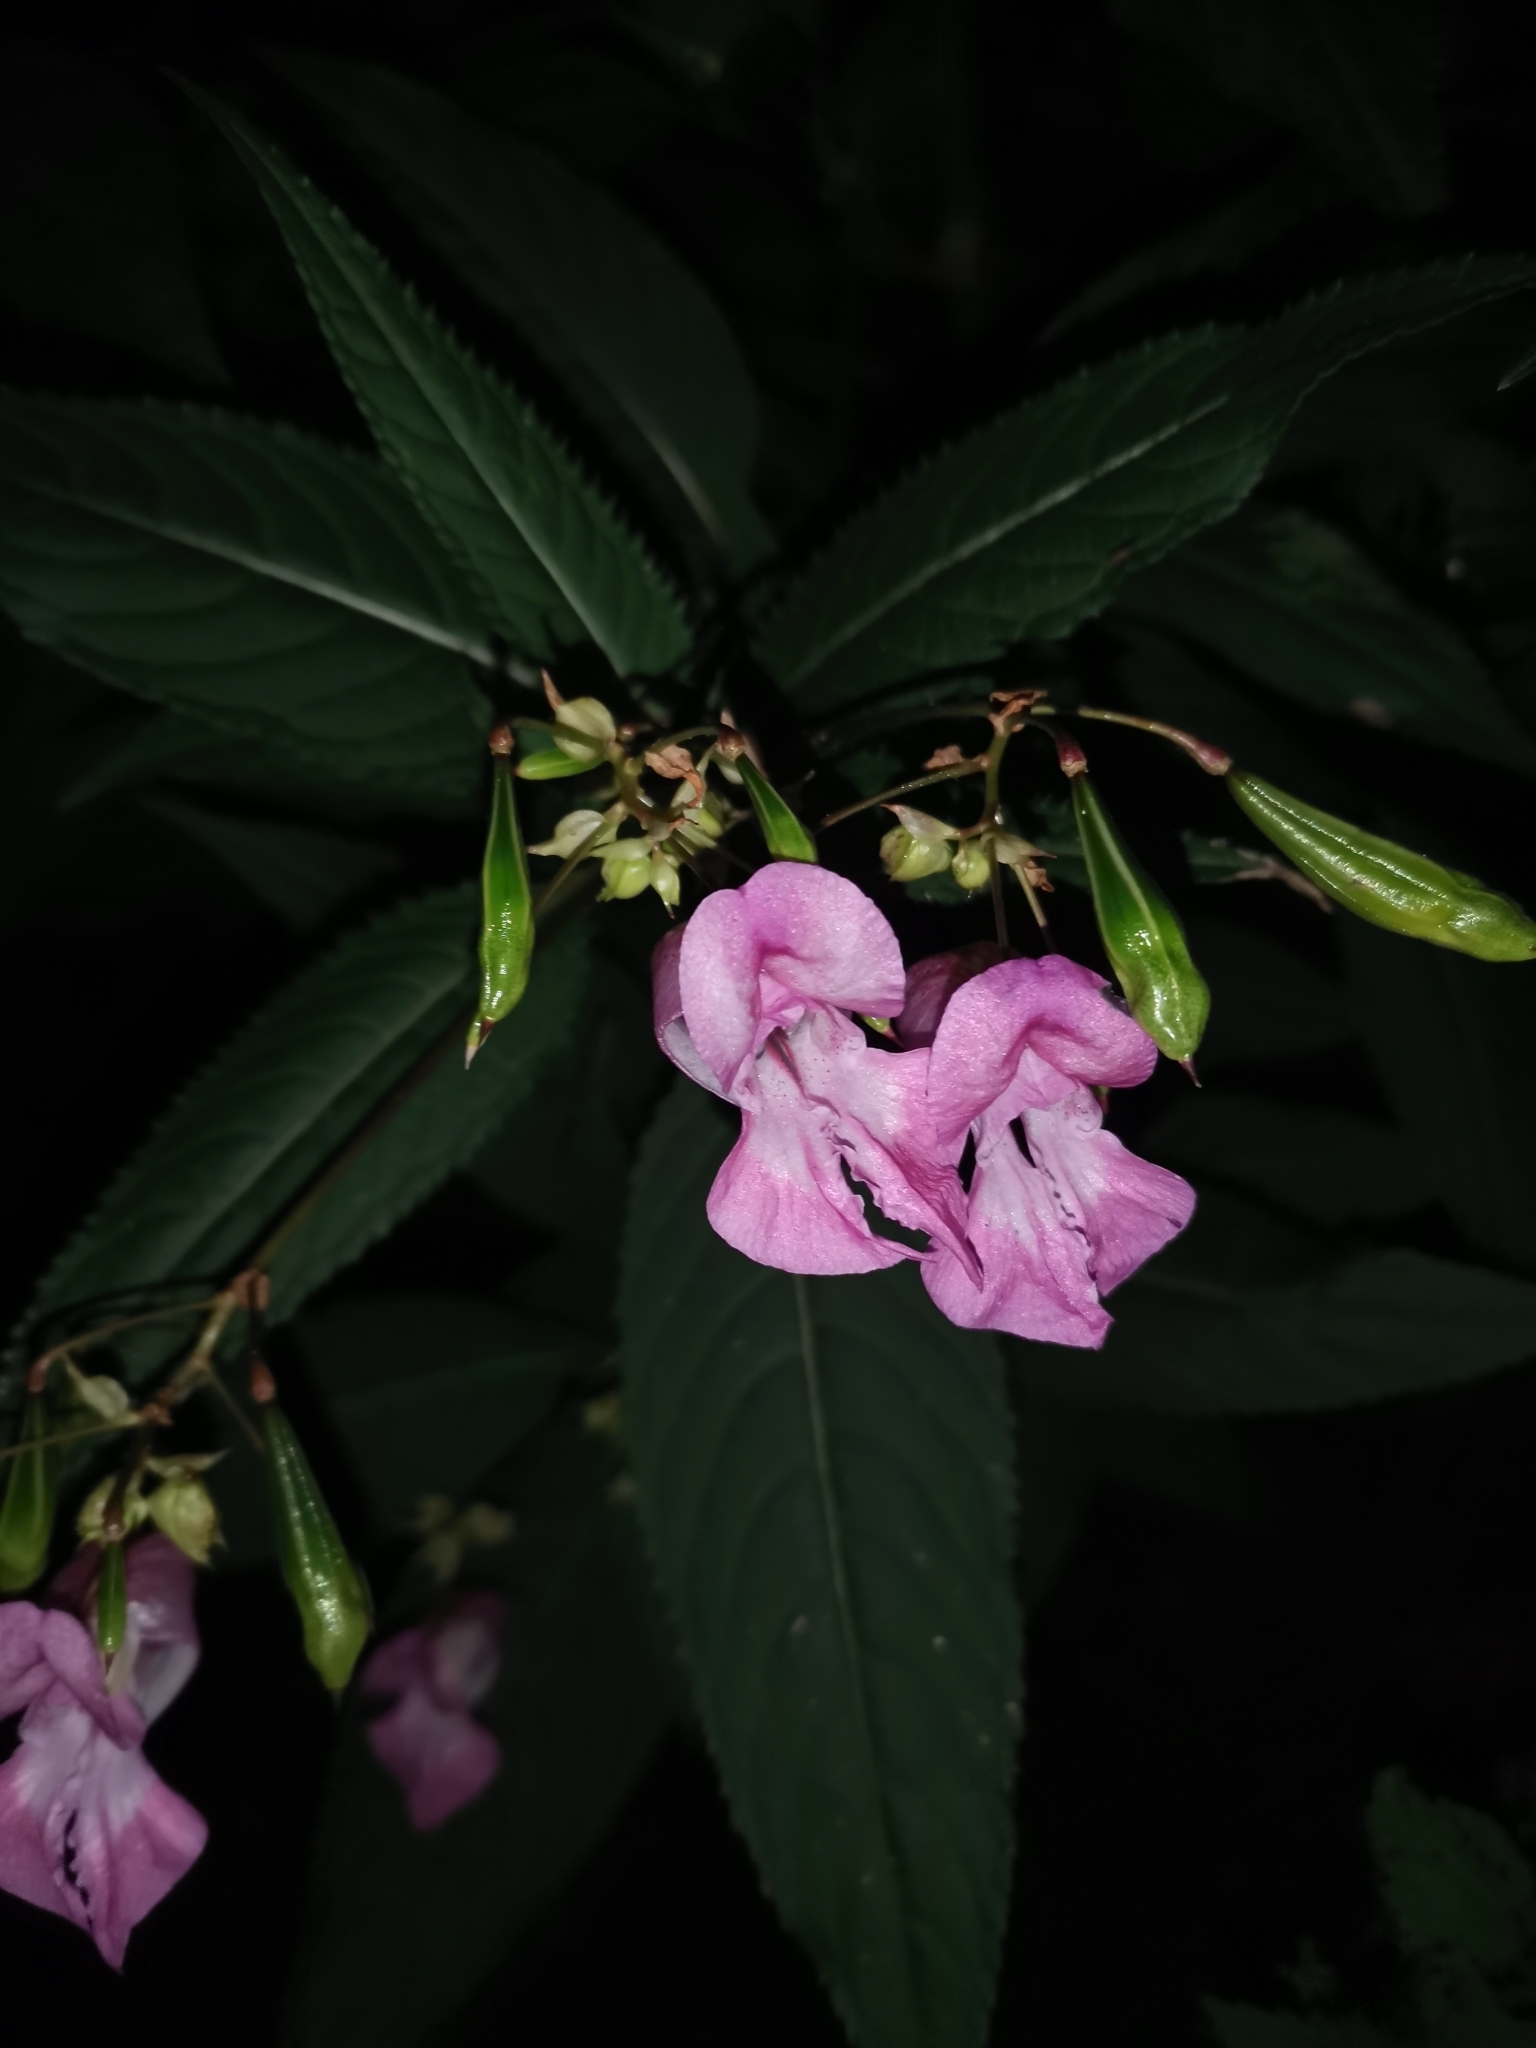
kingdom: Plantae
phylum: Tracheophyta
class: Magnoliopsida
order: Ericales
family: Balsaminaceae
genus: Impatiens
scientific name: Impatiens glandulifera
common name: Himalayan balsam
